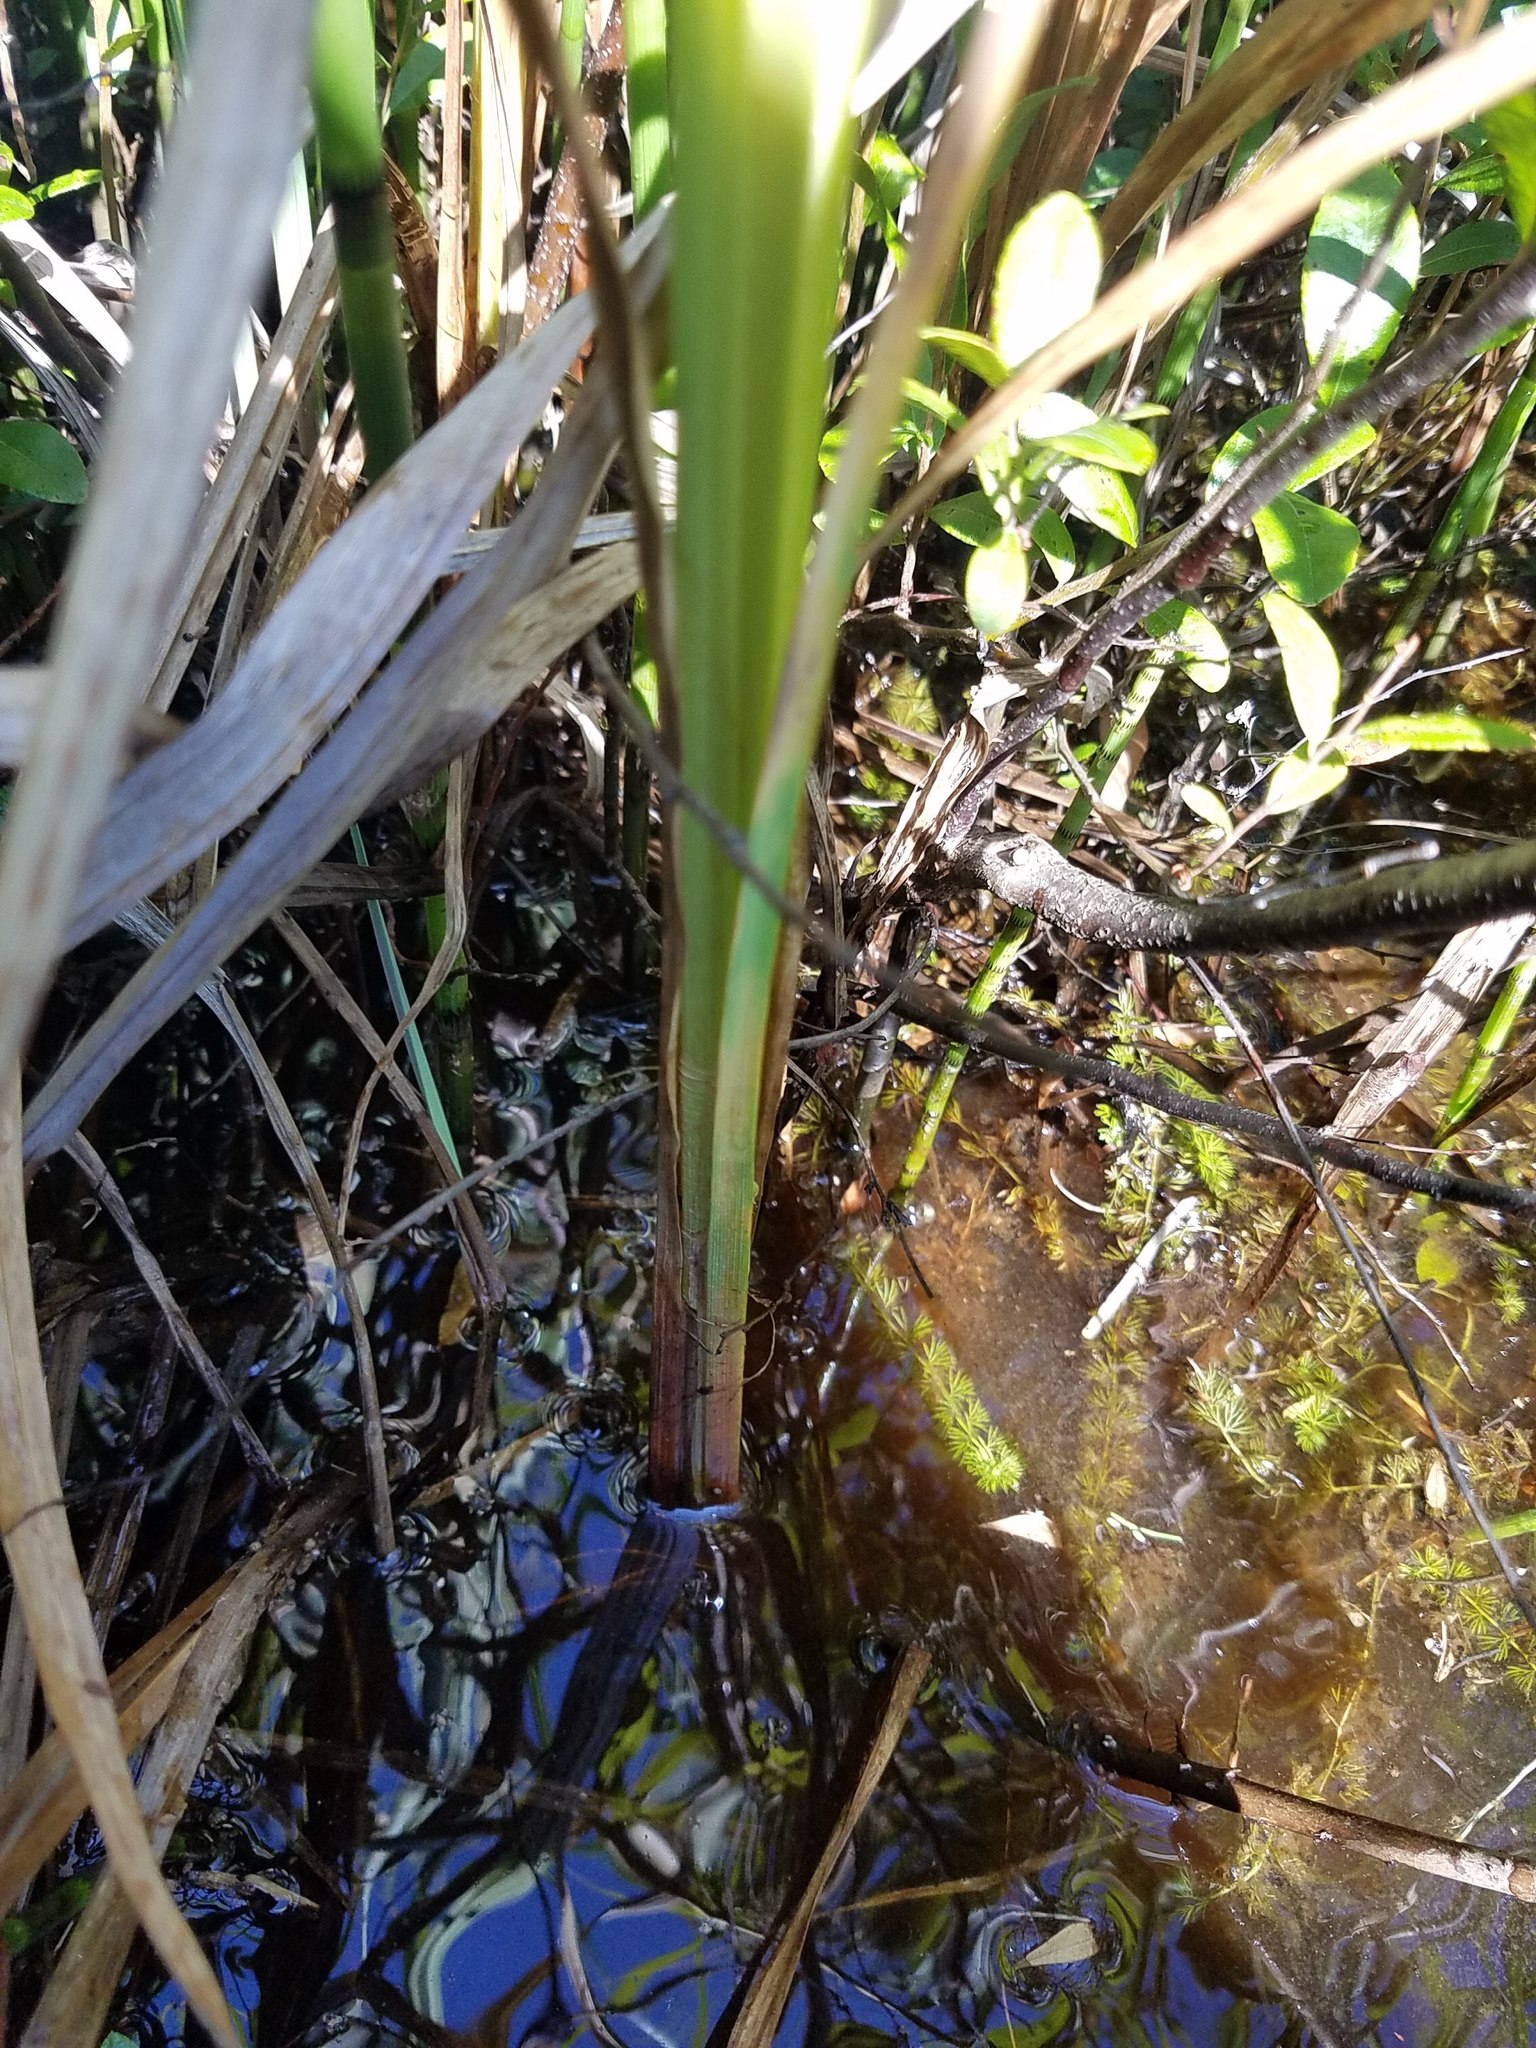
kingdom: Plantae
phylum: Tracheophyta
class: Liliopsida
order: Poales
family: Cyperaceae
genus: Carex
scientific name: Carex lacustris
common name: Common lake sedge
